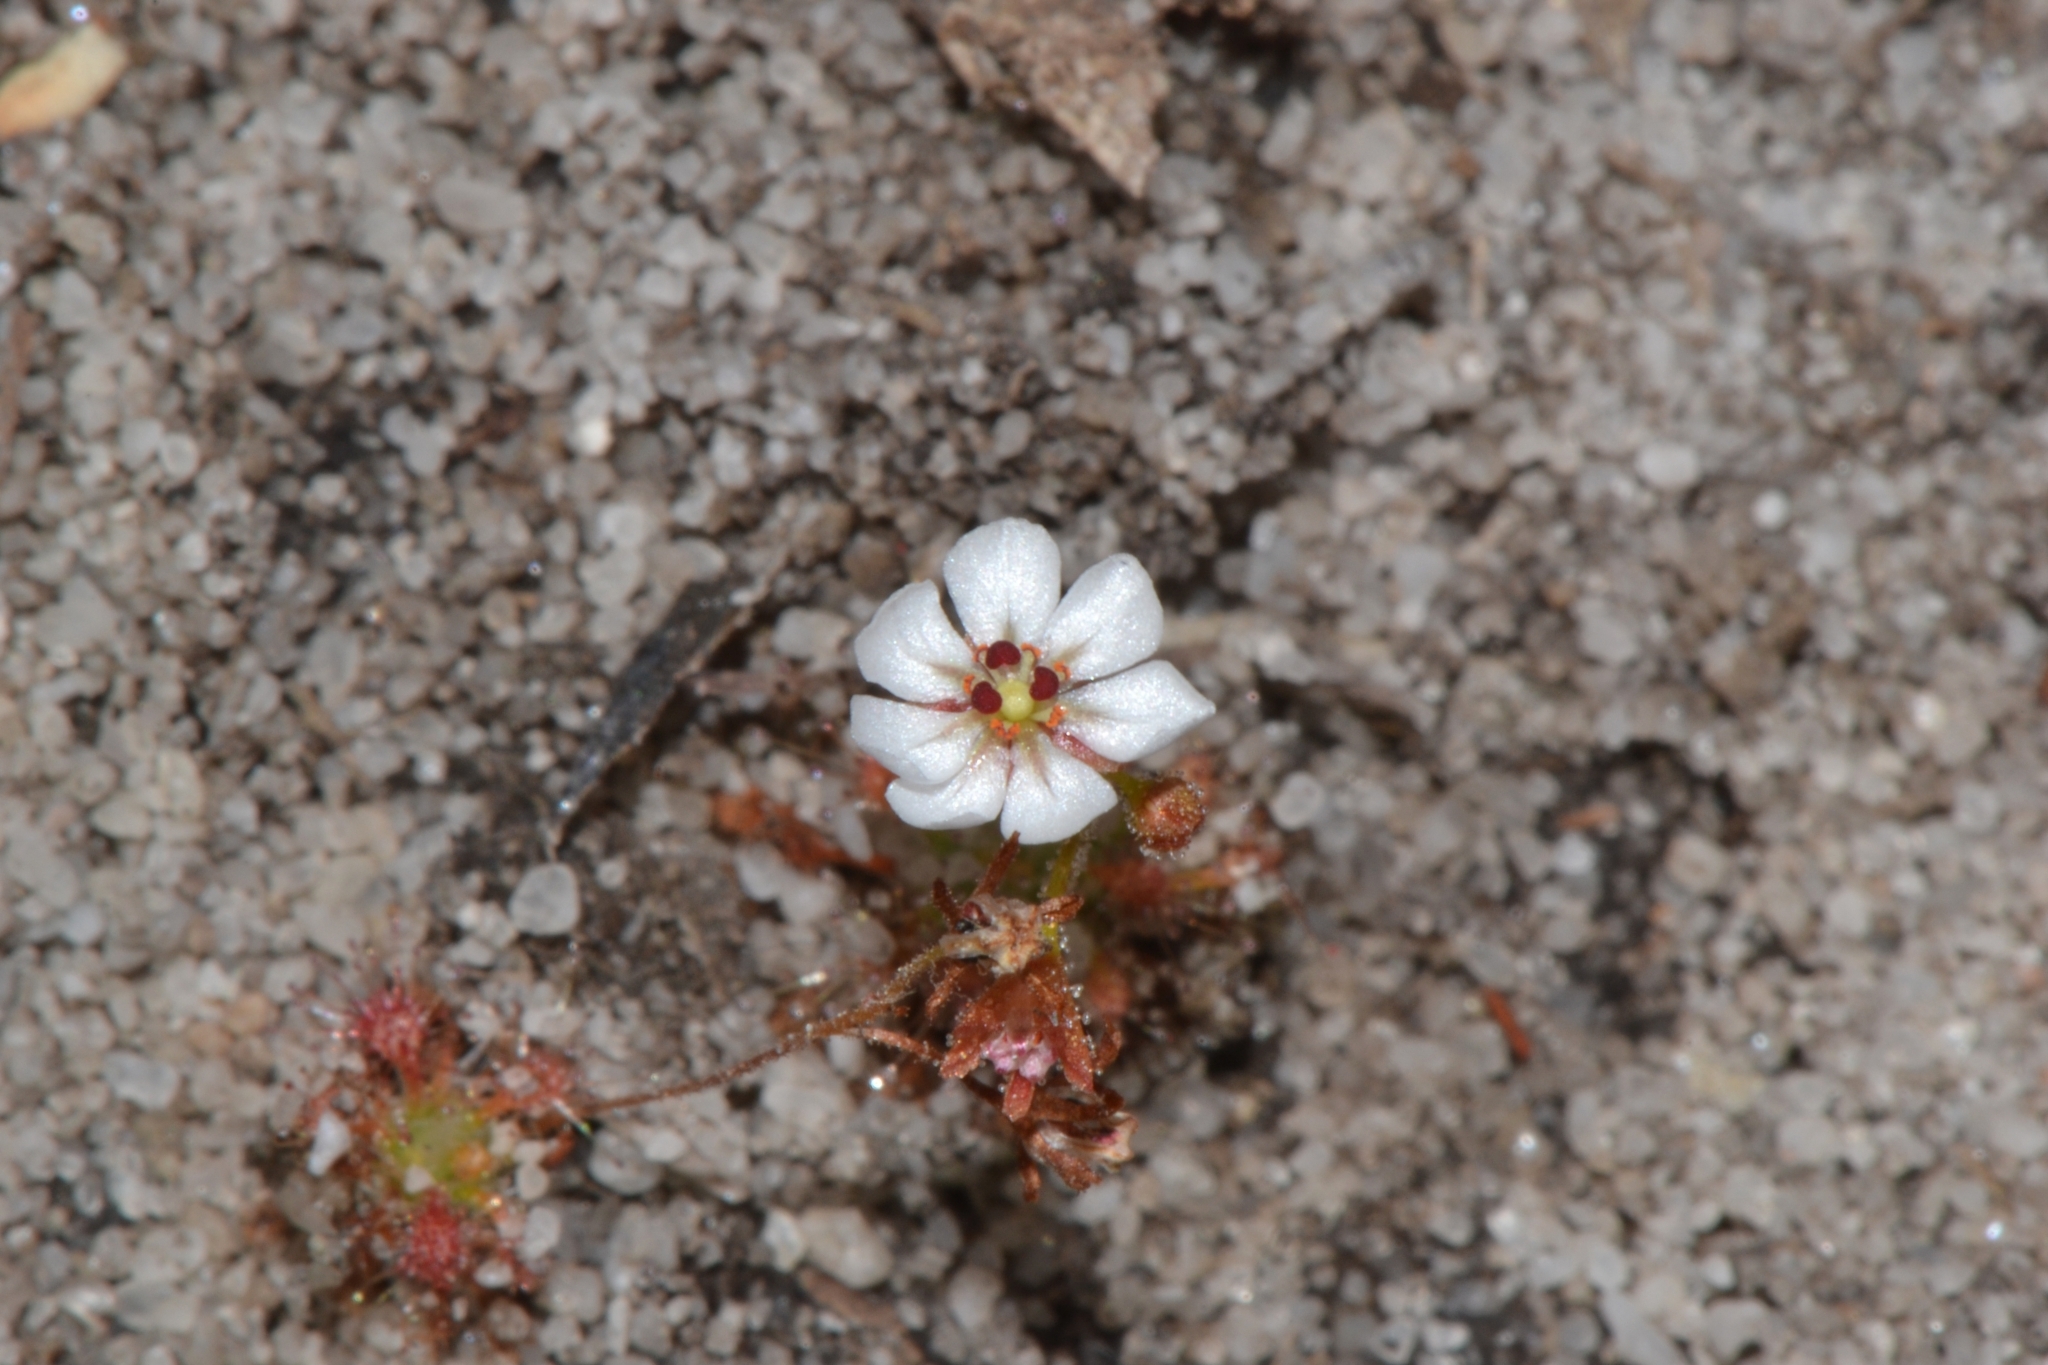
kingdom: Plantae
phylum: Tracheophyta
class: Magnoliopsida
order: Caryophyllales
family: Droseraceae
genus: Drosera
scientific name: Drosera patens
